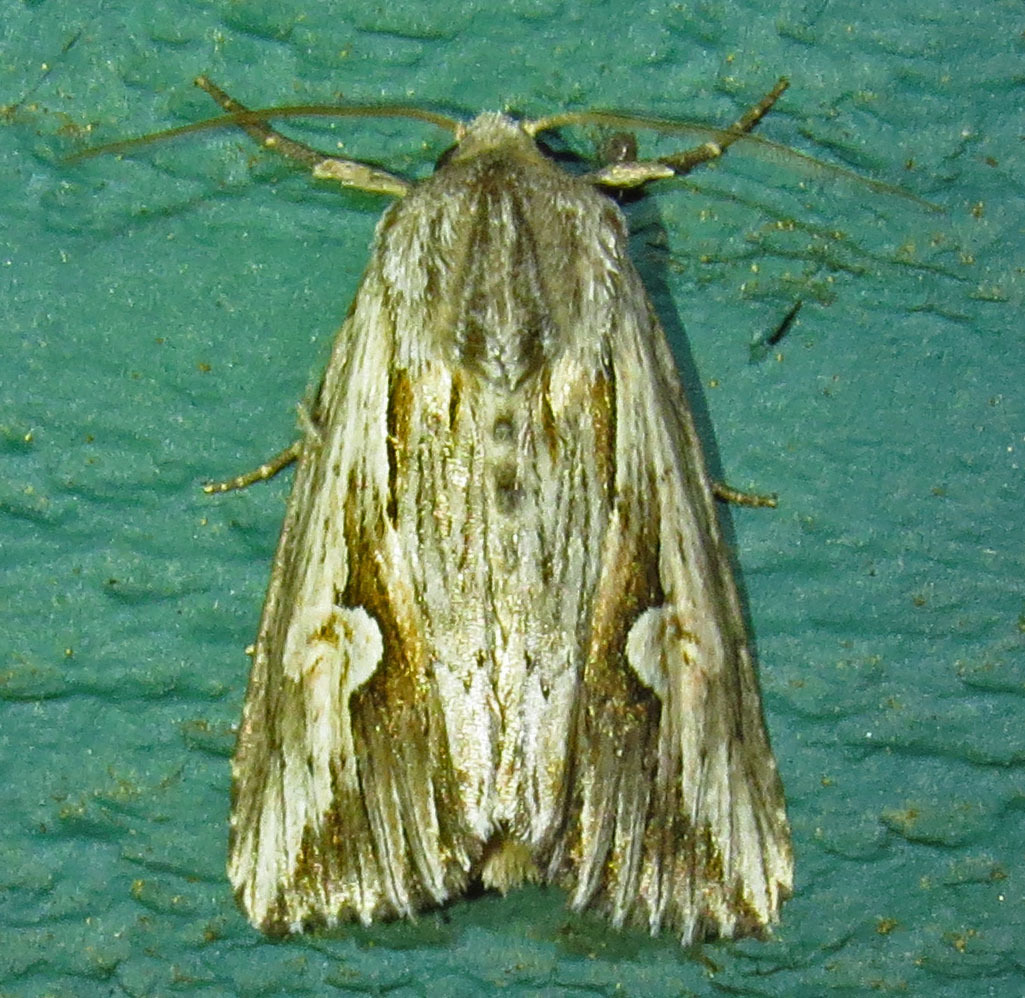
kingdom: Animalia
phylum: Arthropoda
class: Insecta
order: Lepidoptera
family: Noctuidae
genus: Nedra
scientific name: Nedra ramosula
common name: Gray half-spot
